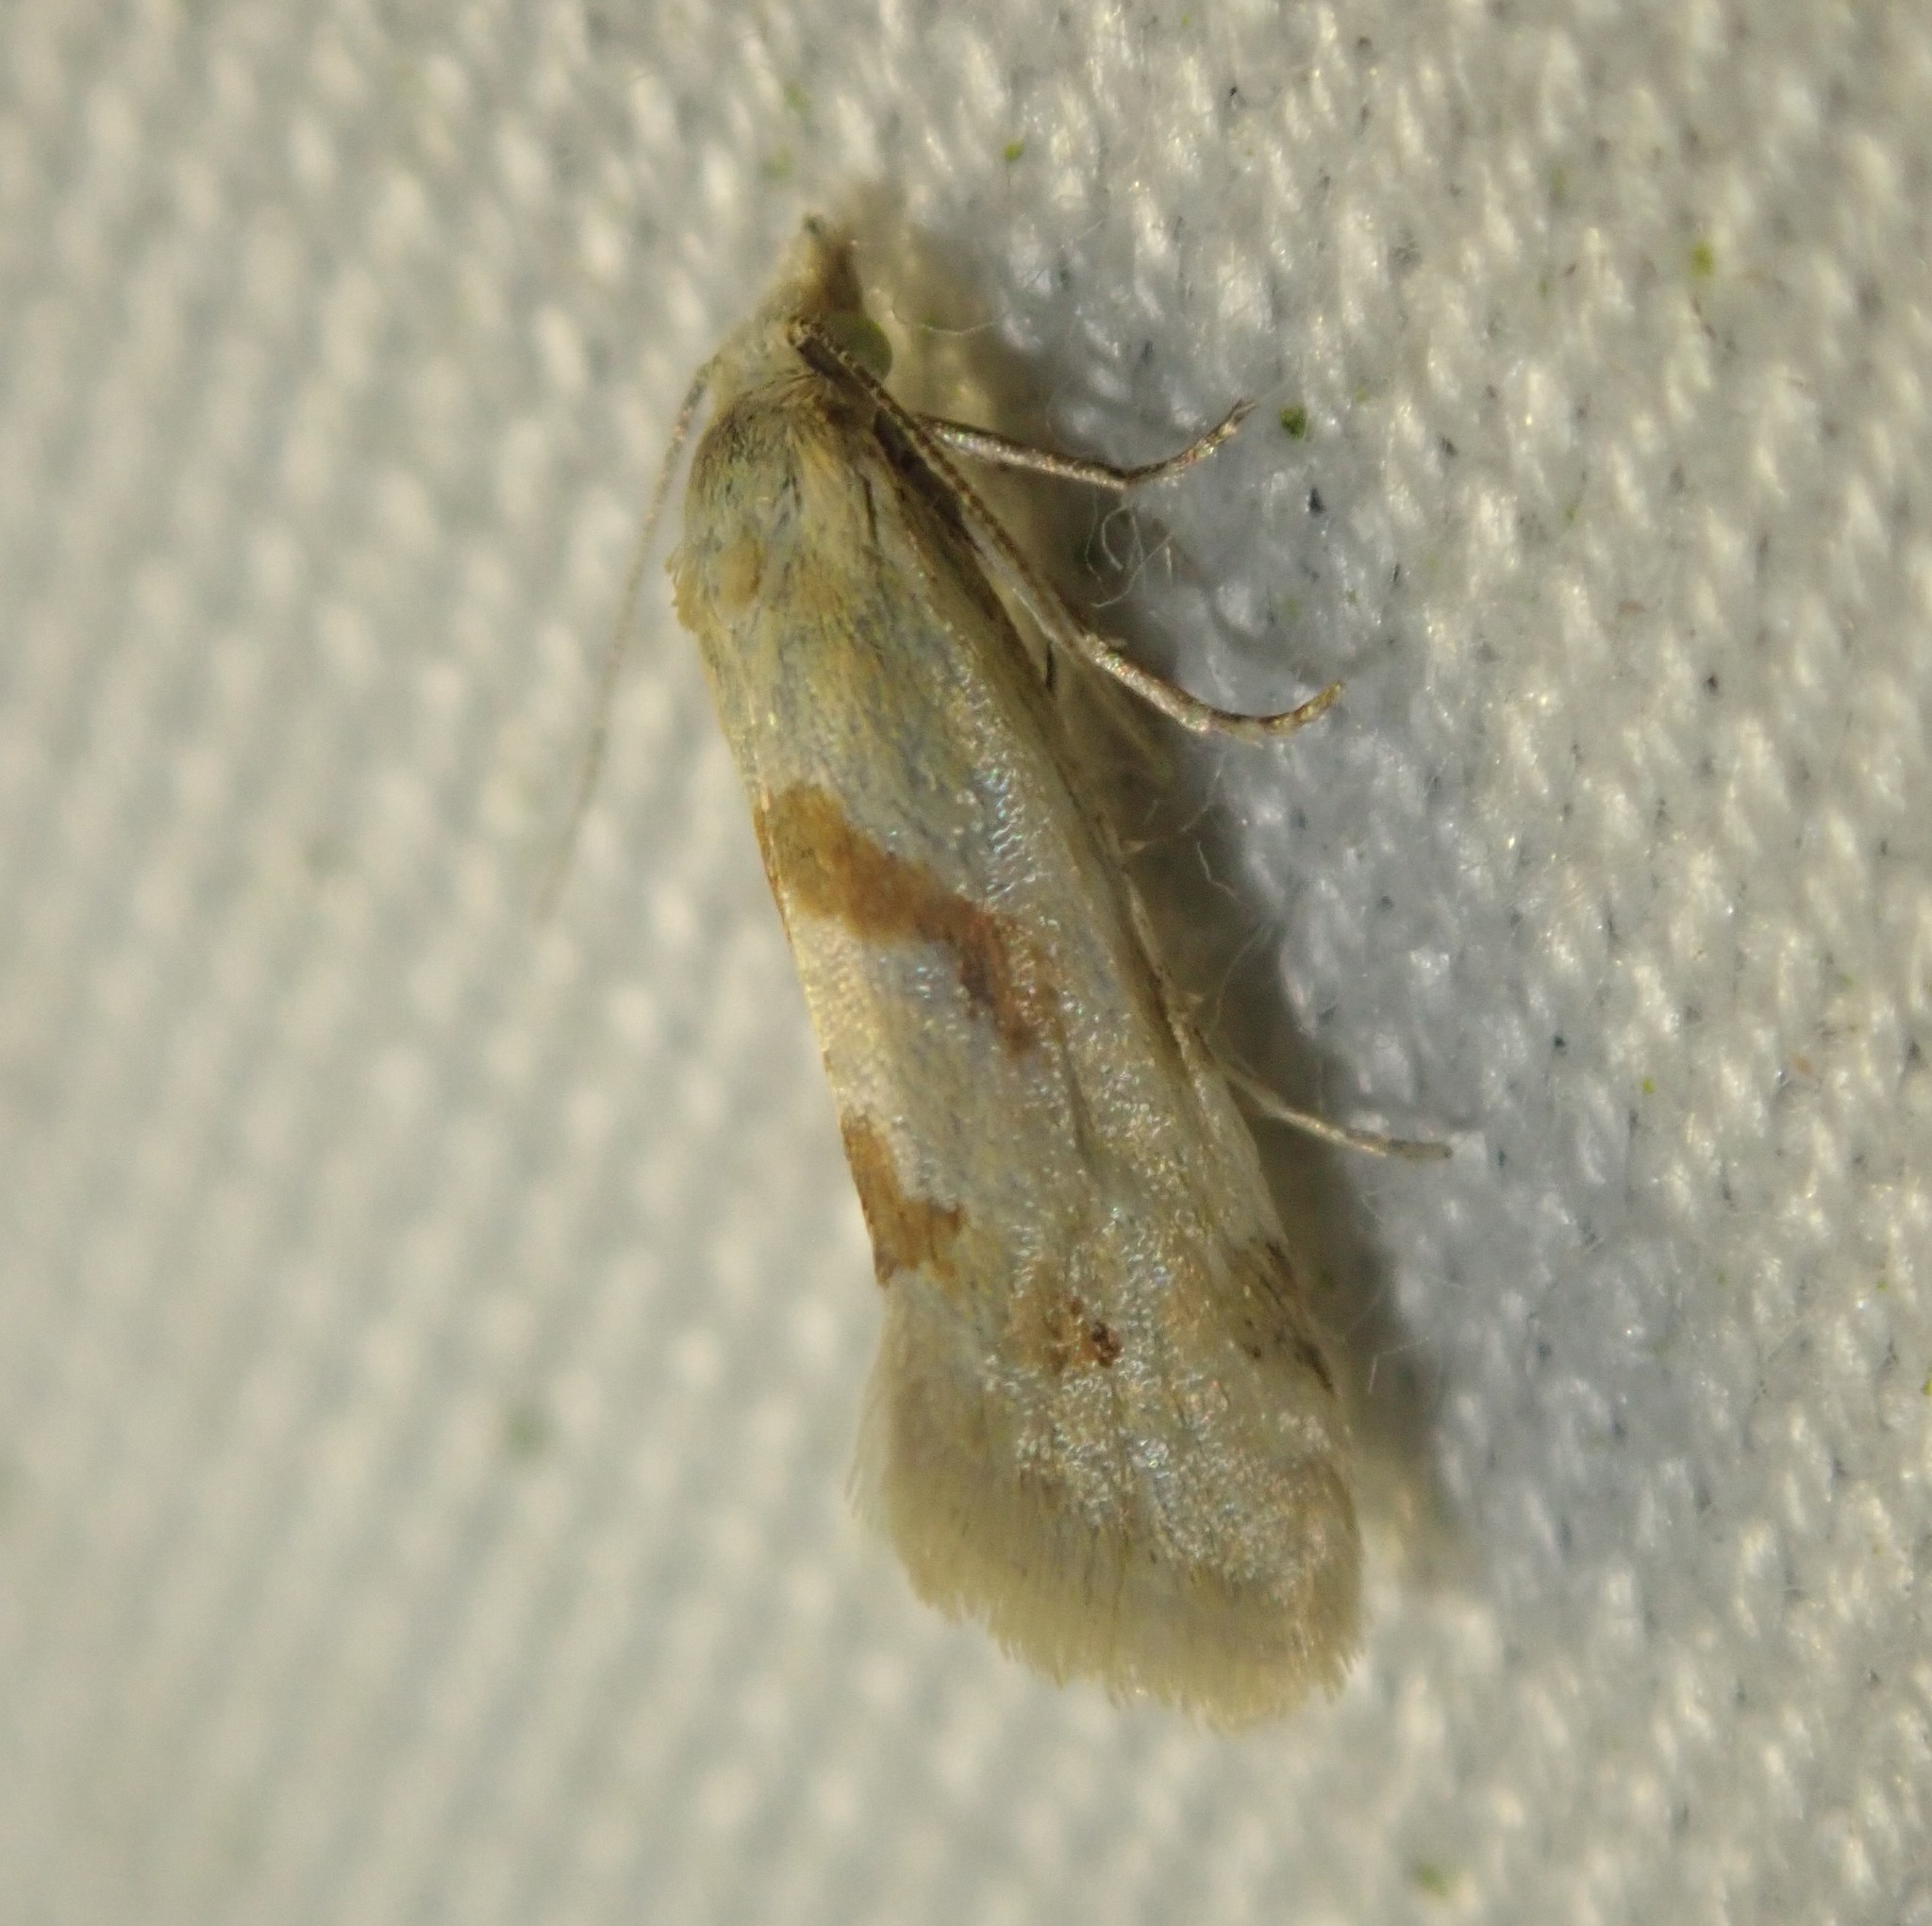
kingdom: Animalia
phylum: Arthropoda
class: Insecta
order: Lepidoptera
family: Tortricidae
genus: Aethes
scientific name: Aethes smeathmanniana
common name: Yarrow conch
